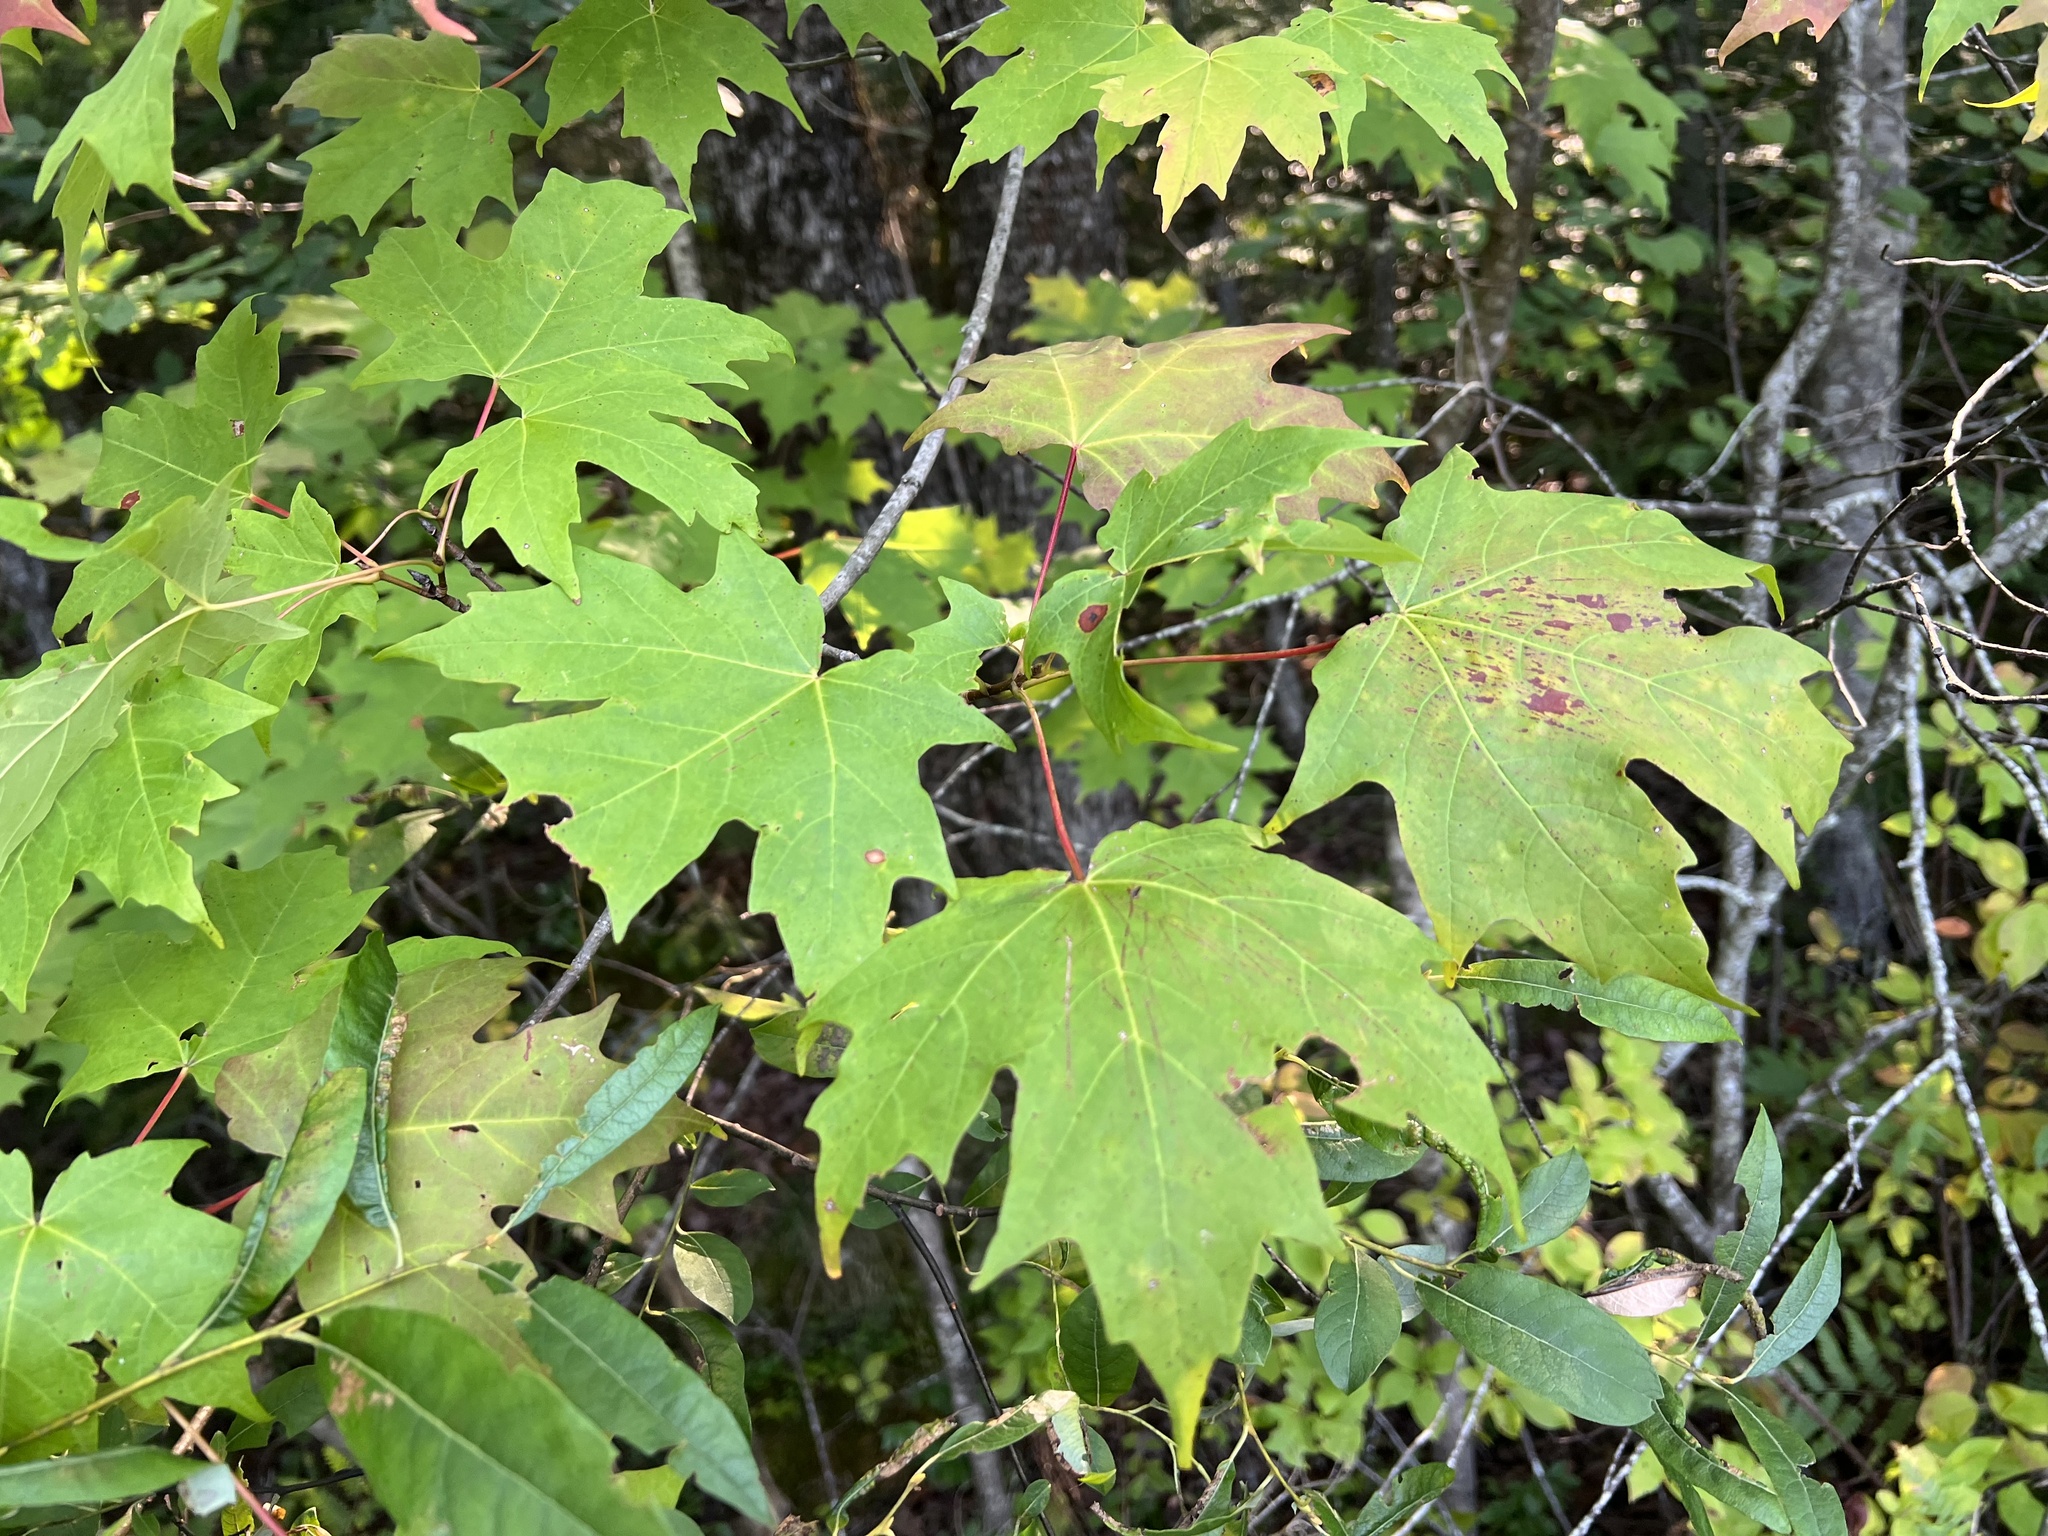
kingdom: Plantae
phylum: Tracheophyta
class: Magnoliopsida
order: Sapindales
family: Sapindaceae
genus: Acer
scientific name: Acer saccharum
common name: Sugar maple
